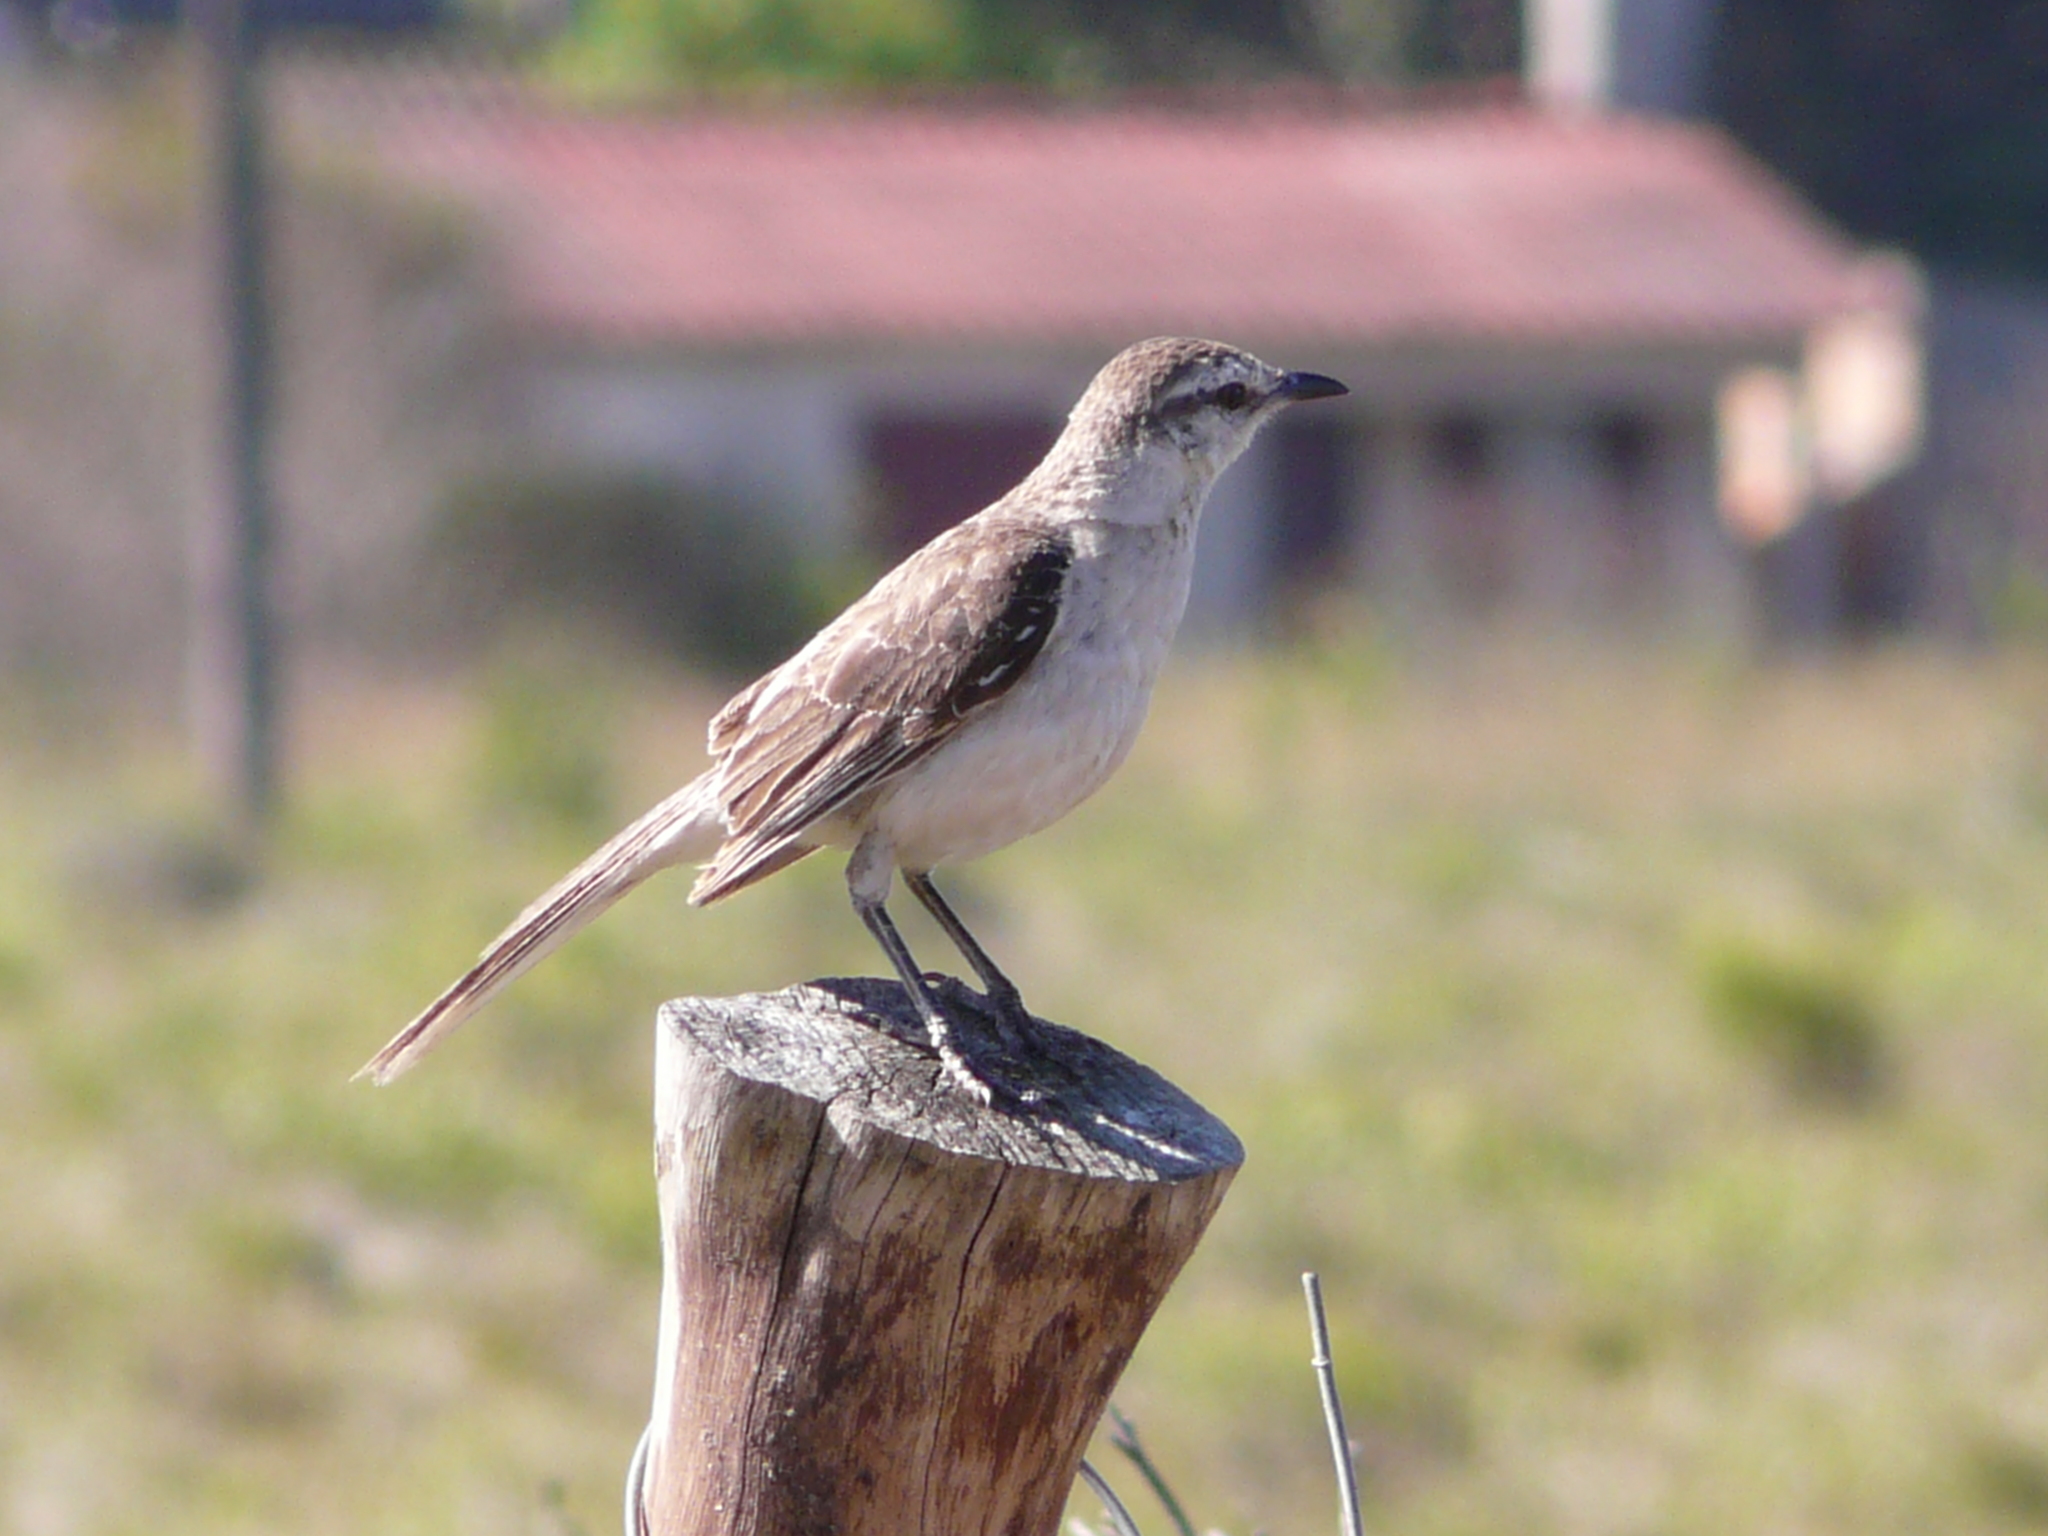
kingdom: Animalia
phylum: Chordata
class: Aves
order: Passeriformes
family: Mimidae
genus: Mimus
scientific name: Mimus saturninus
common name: Chalk-browed mockingbird
